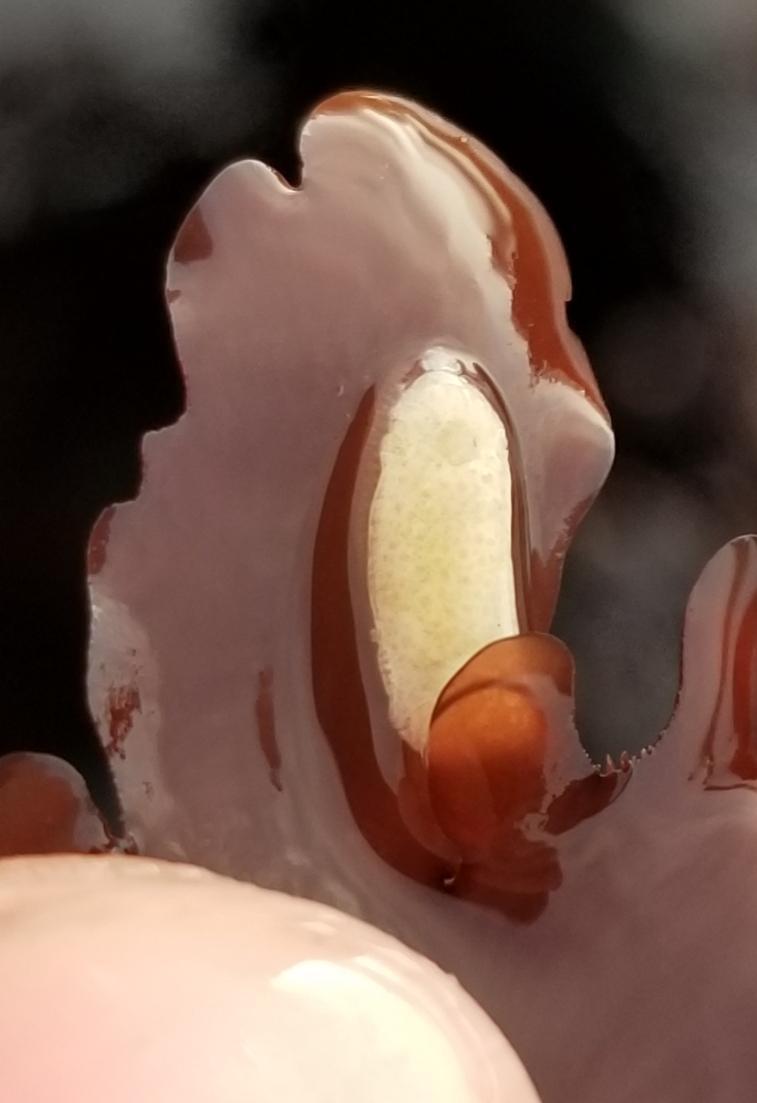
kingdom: Animalia
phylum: Mollusca
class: Gastropoda
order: Nudibranchia
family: Calycidorididae
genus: Diaphorodoris
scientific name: Diaphorodoris lirulatocauda
